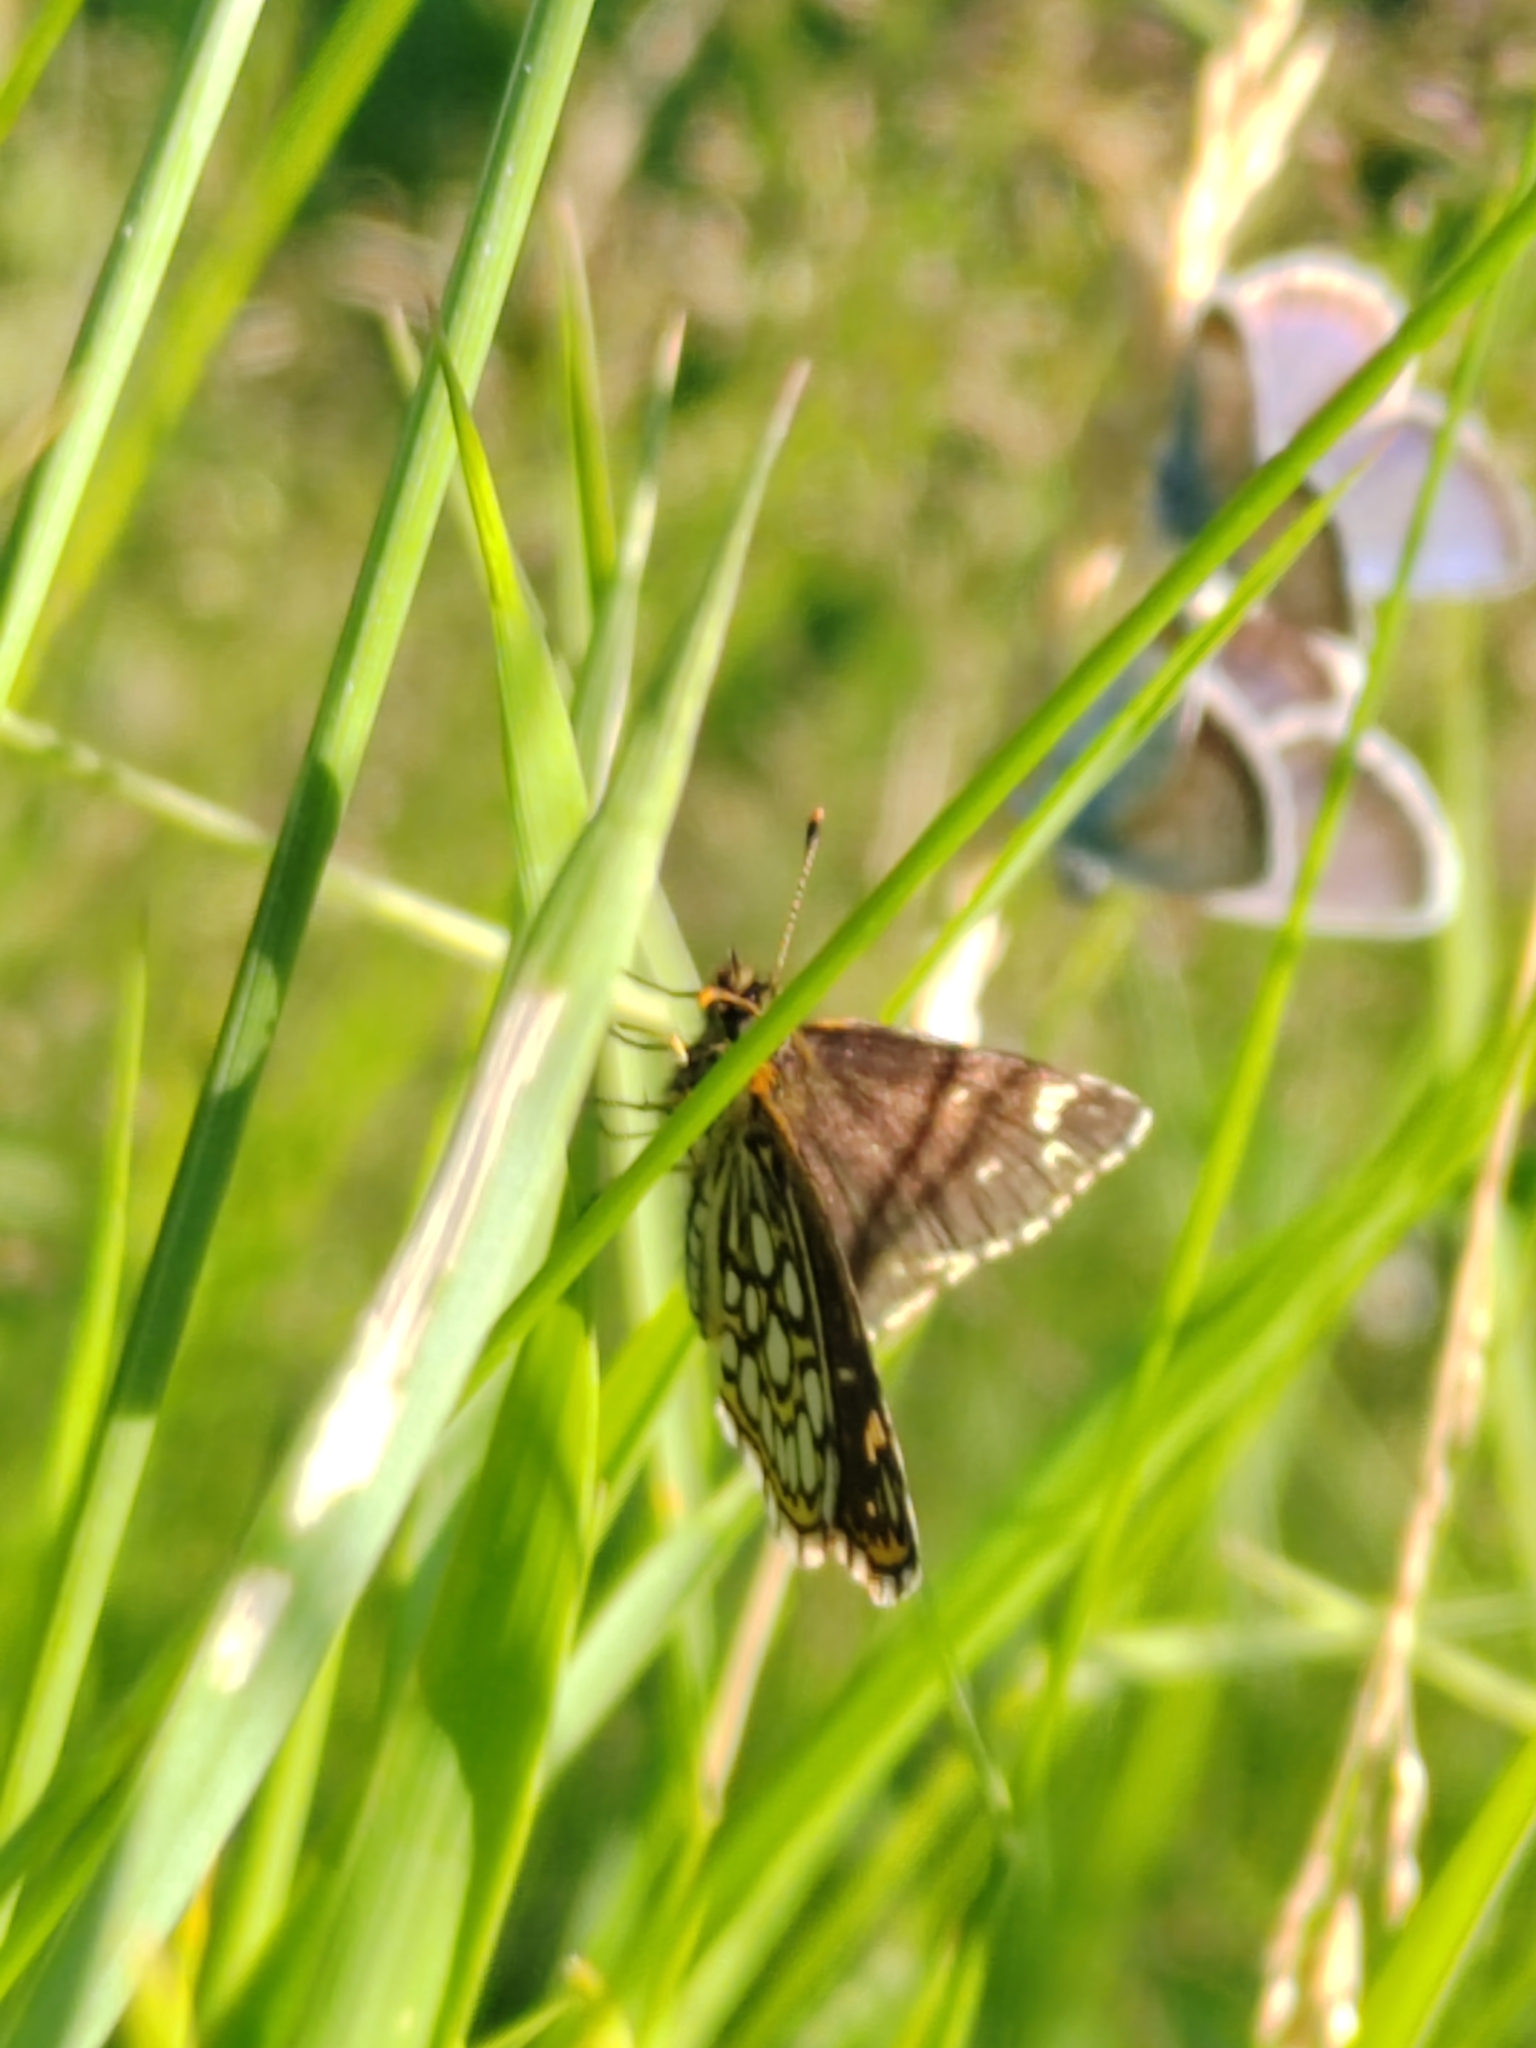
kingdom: Animalia
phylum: Arthropoda
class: Insecta
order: Lepidoptera
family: Hesperiidae
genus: Heteropterus
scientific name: Heteropterus morpheus
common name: Large chequered skipper
